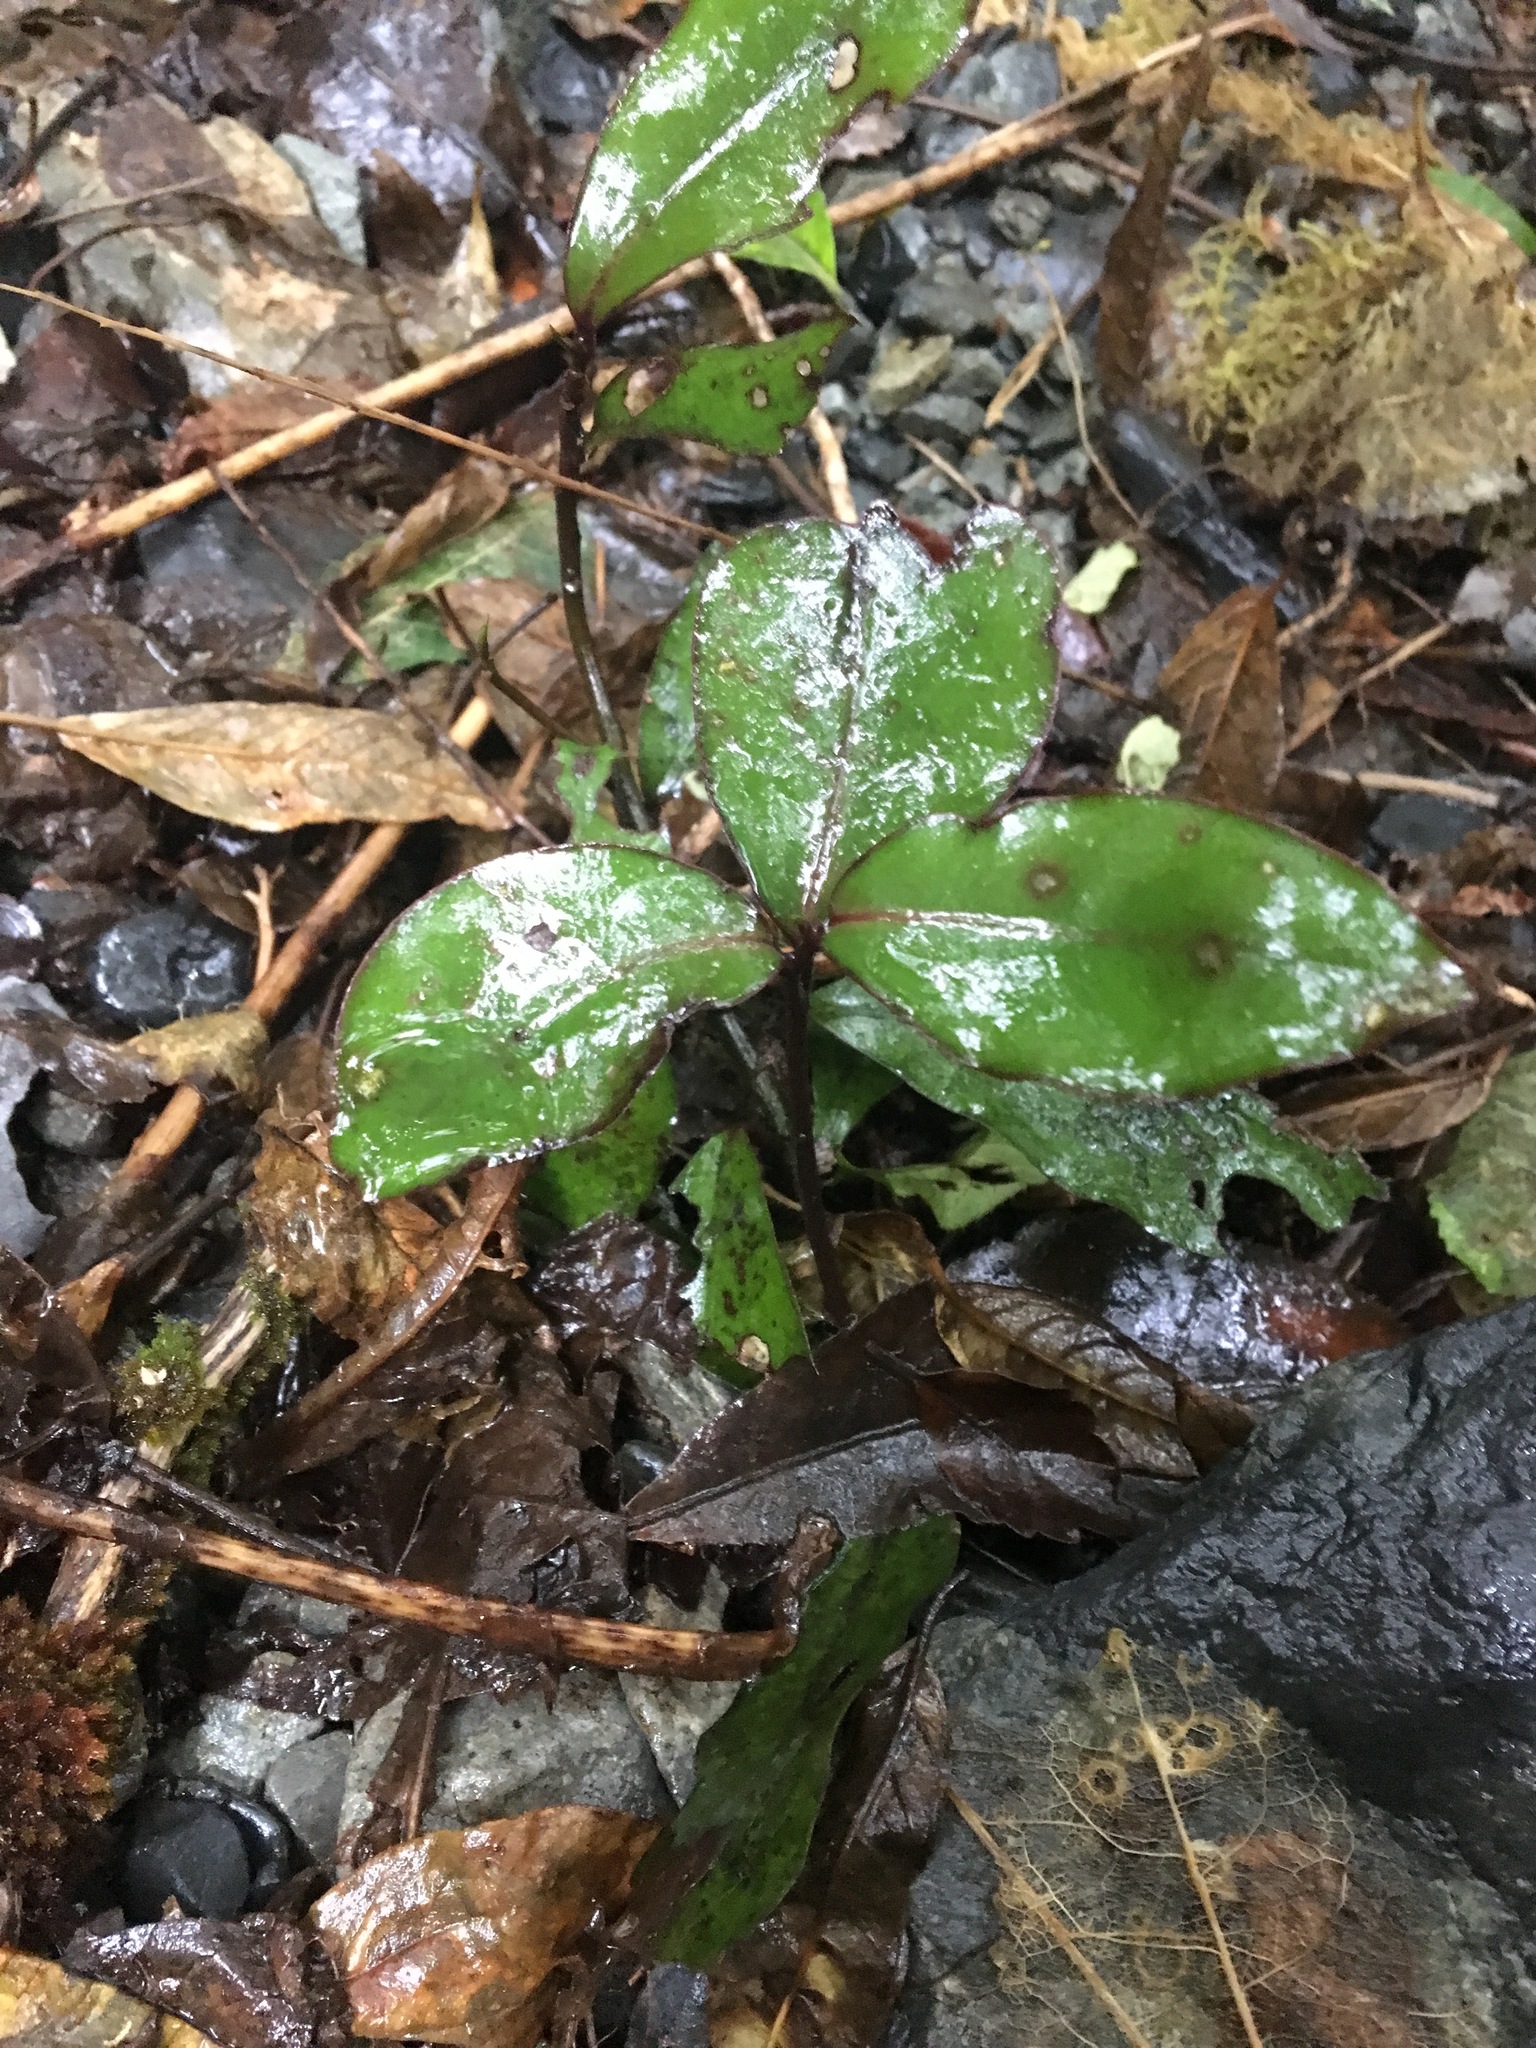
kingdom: Plantae
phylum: Tracheophyta
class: Magnoliopsida
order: Canellales
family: Winteraceae
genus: Pseudowintera
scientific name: Pseudowintera colorata
